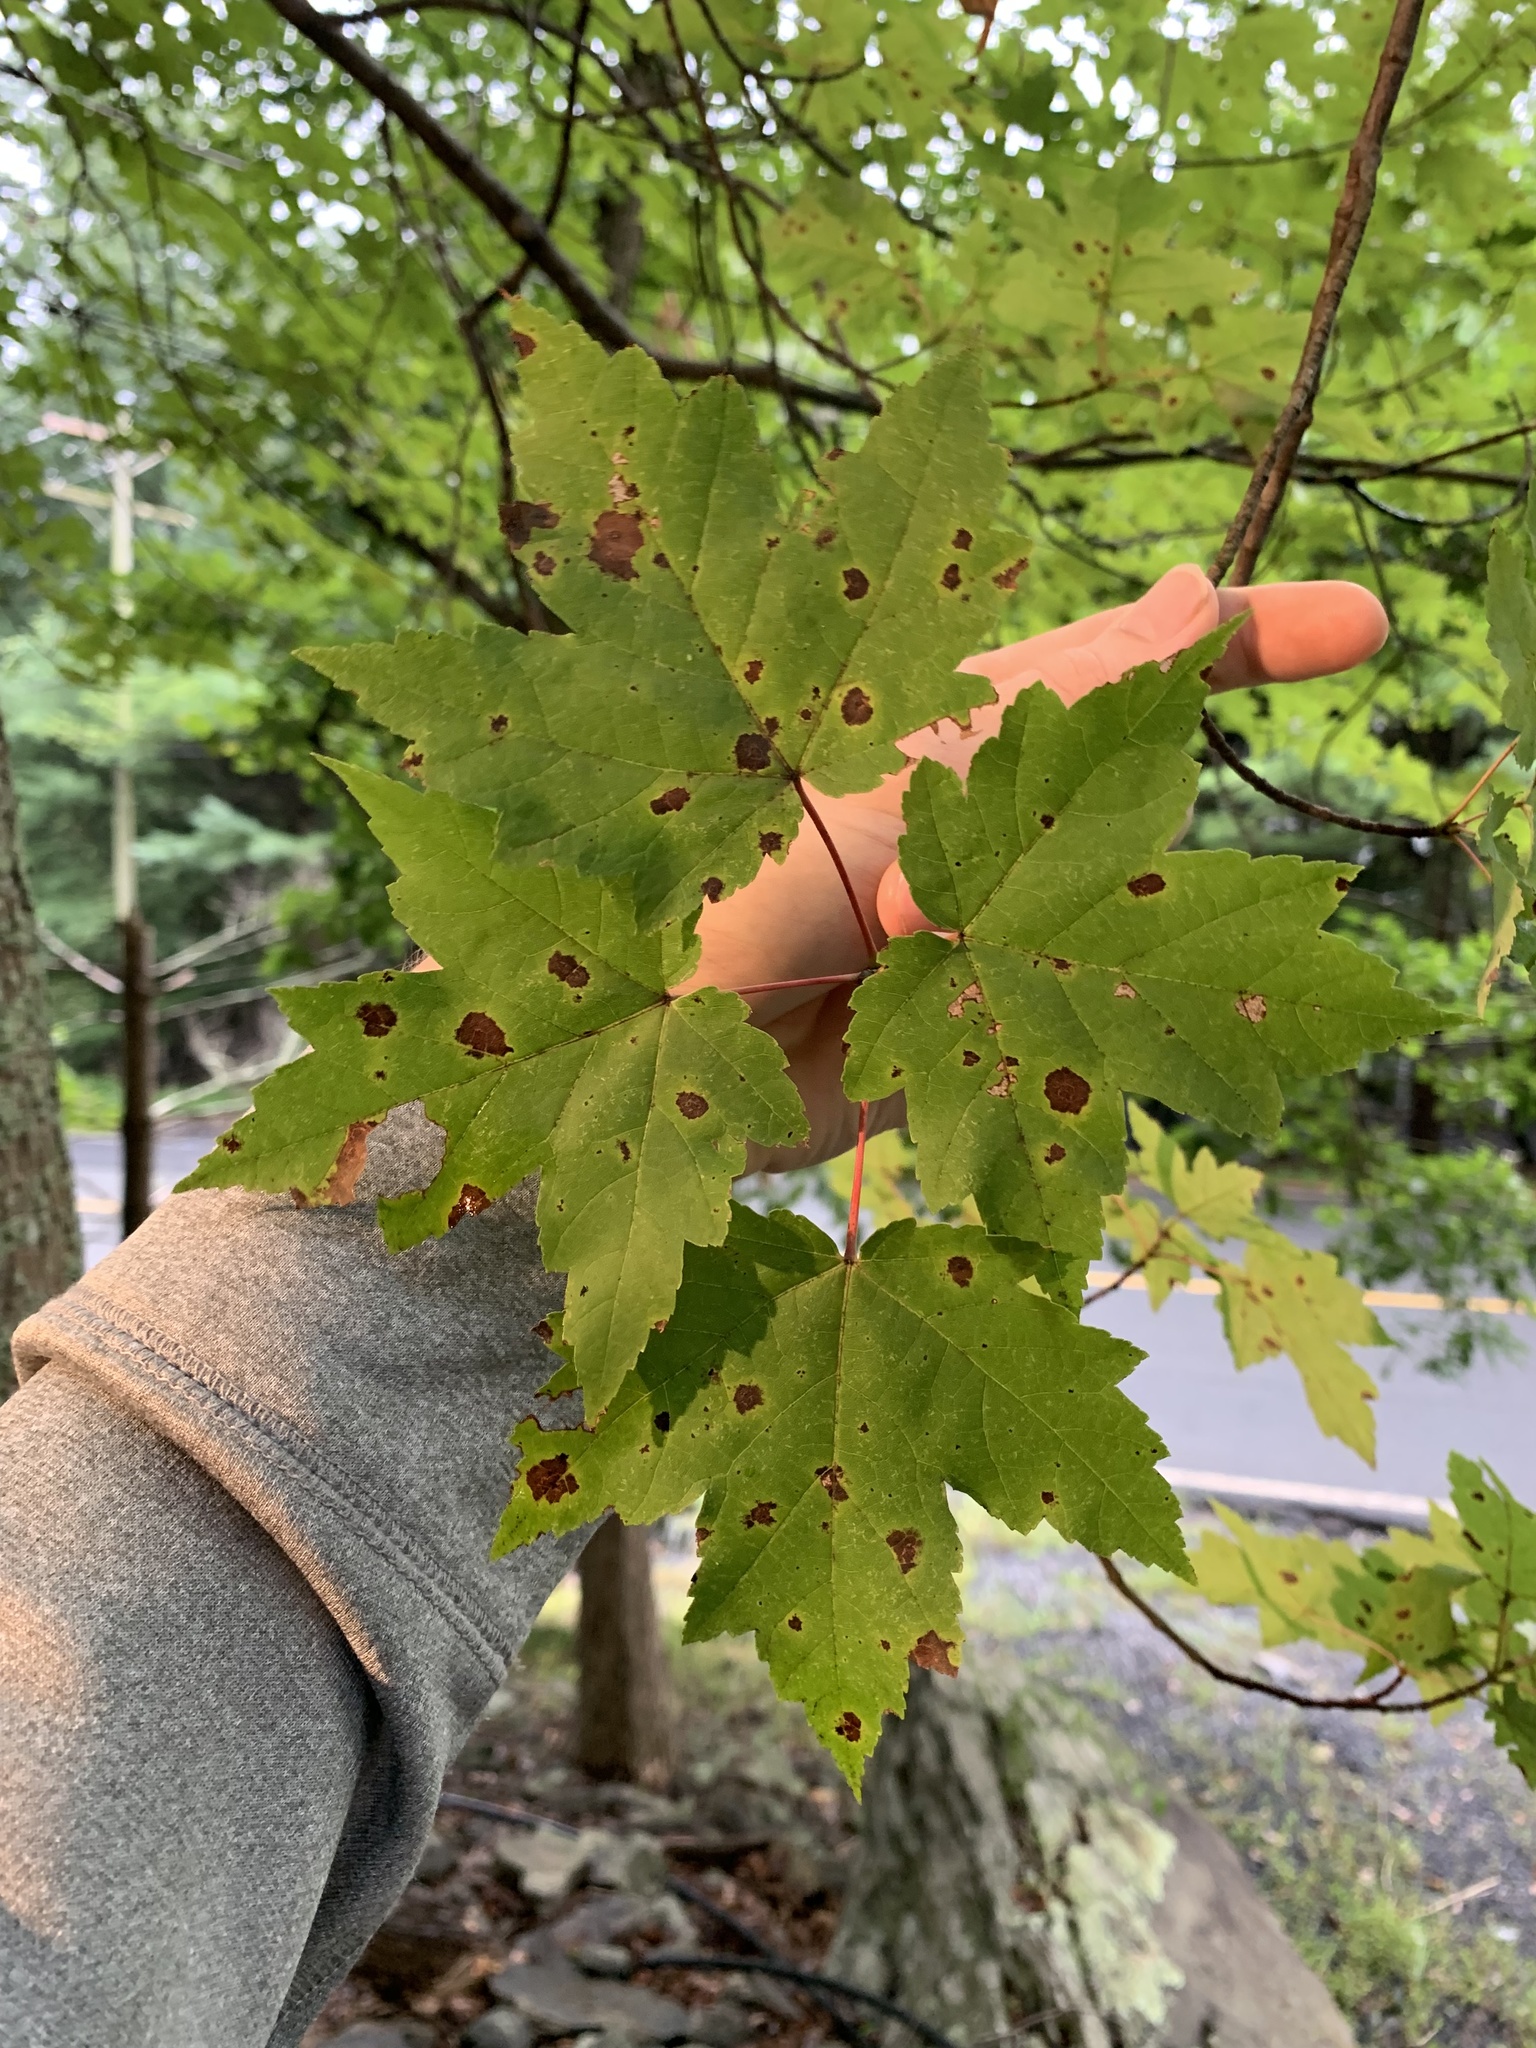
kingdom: Plantae
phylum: Tracheophyta
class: Magnoliopsida
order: Sapindales
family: Sapindaceae
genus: Acer
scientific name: Acer rubrum
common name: Red maple
